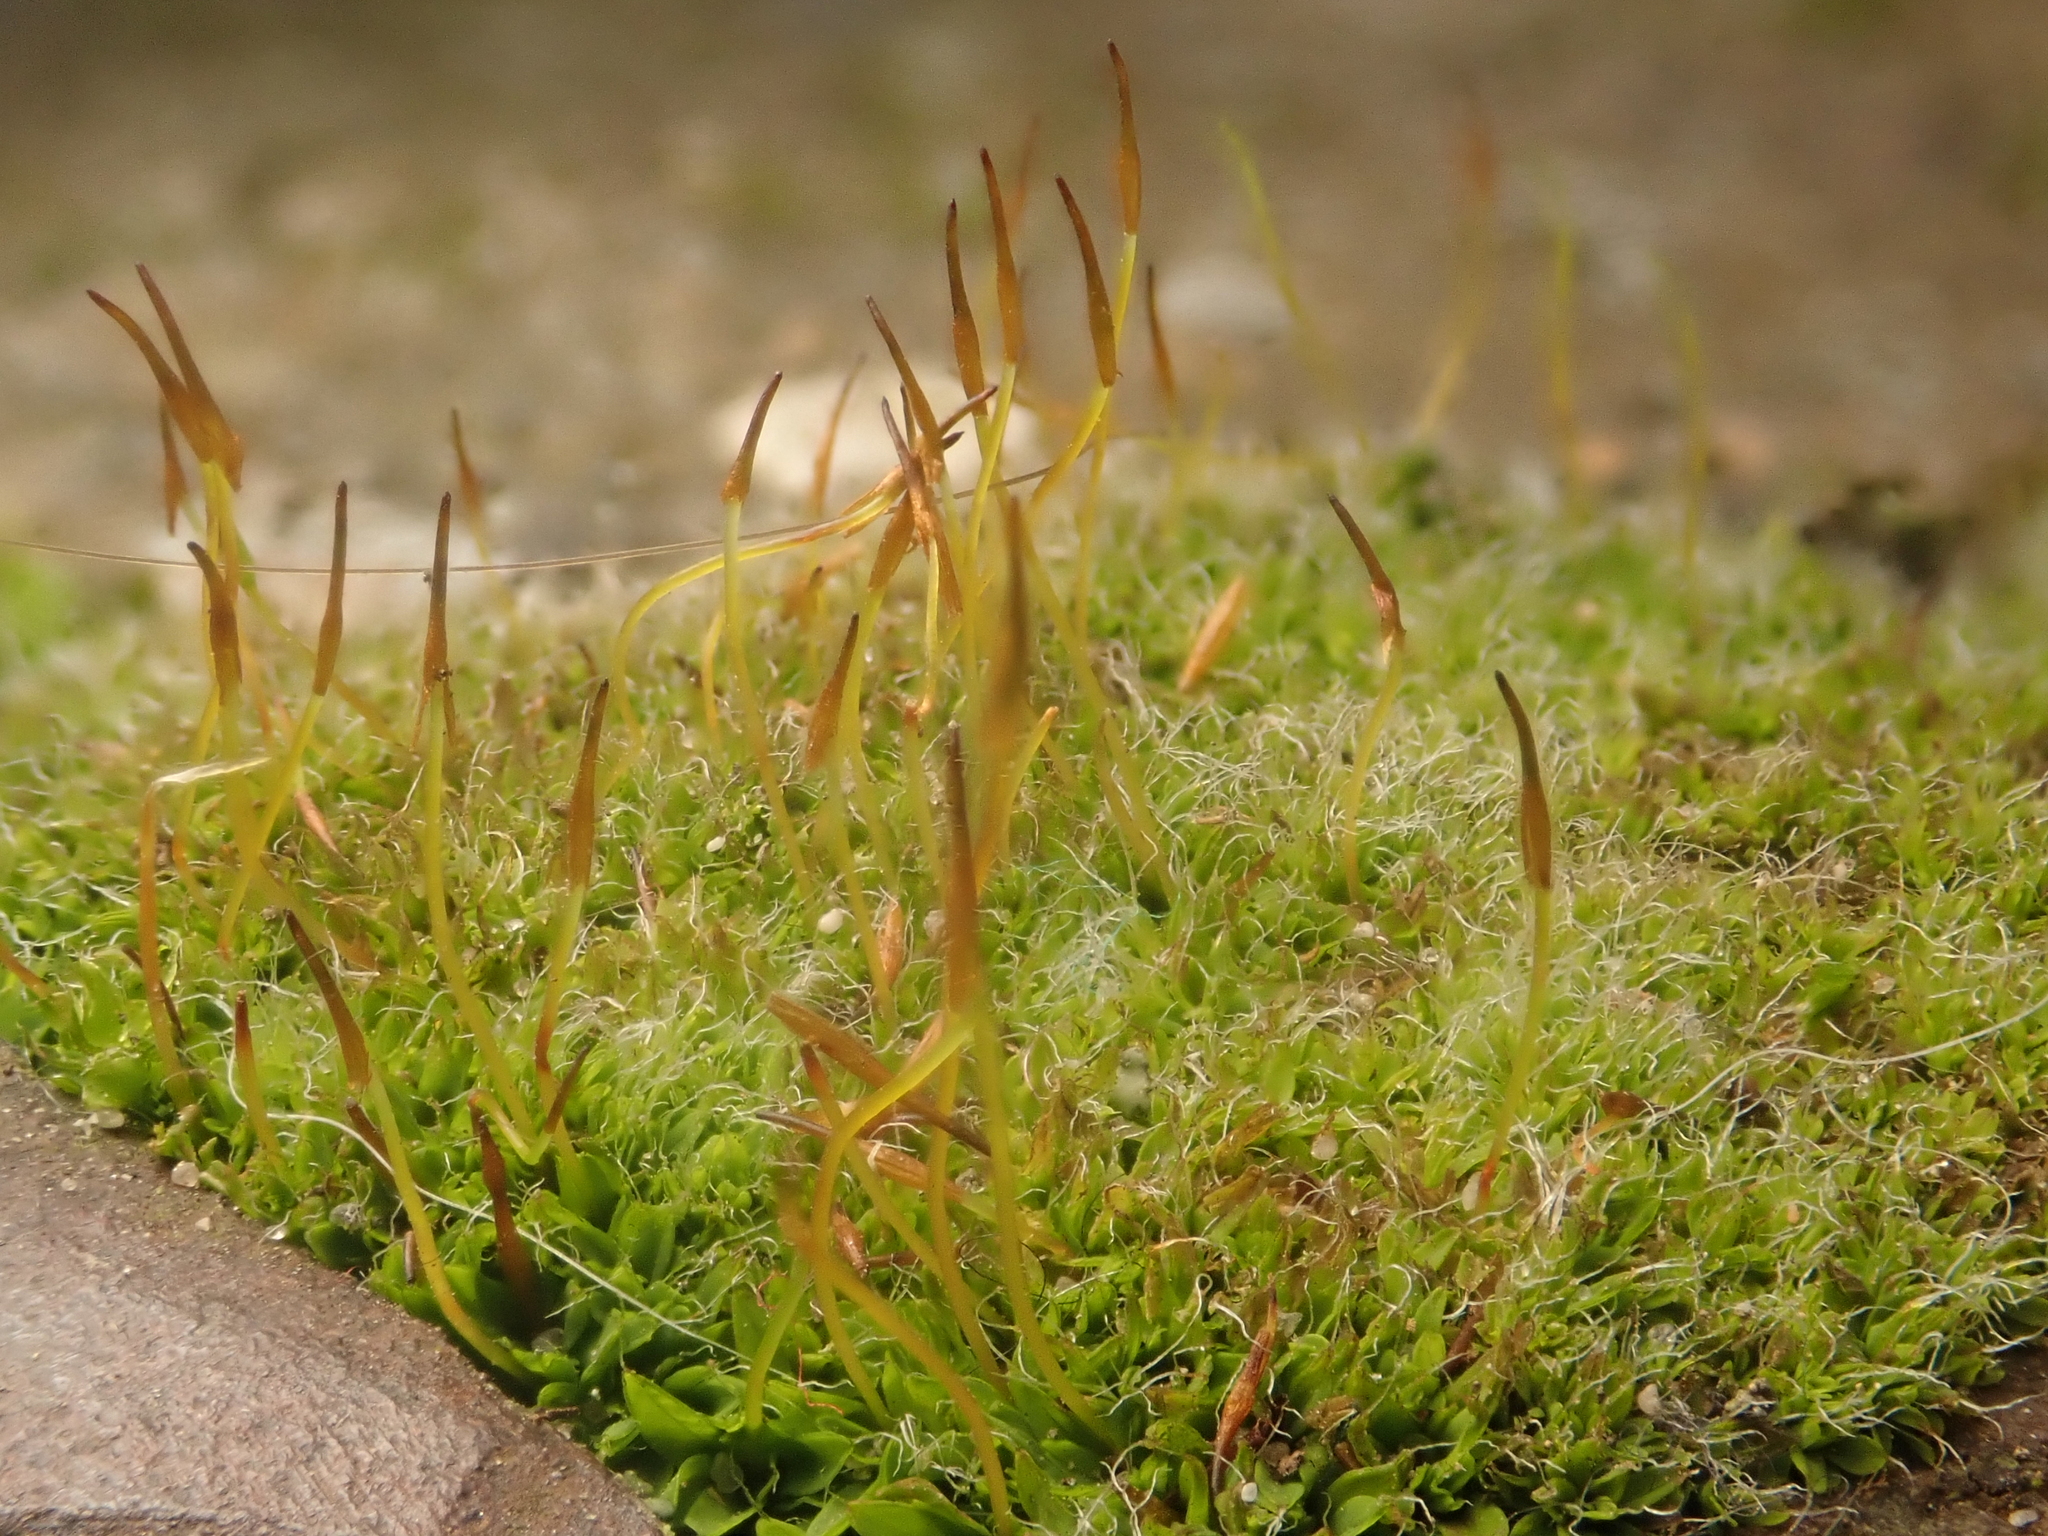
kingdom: Plantae
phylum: Bryophyta
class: Bryopsida
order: Pottiales
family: Pottiaceae
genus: Tortula
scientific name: Tortula muralis
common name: Wall screw-moss
